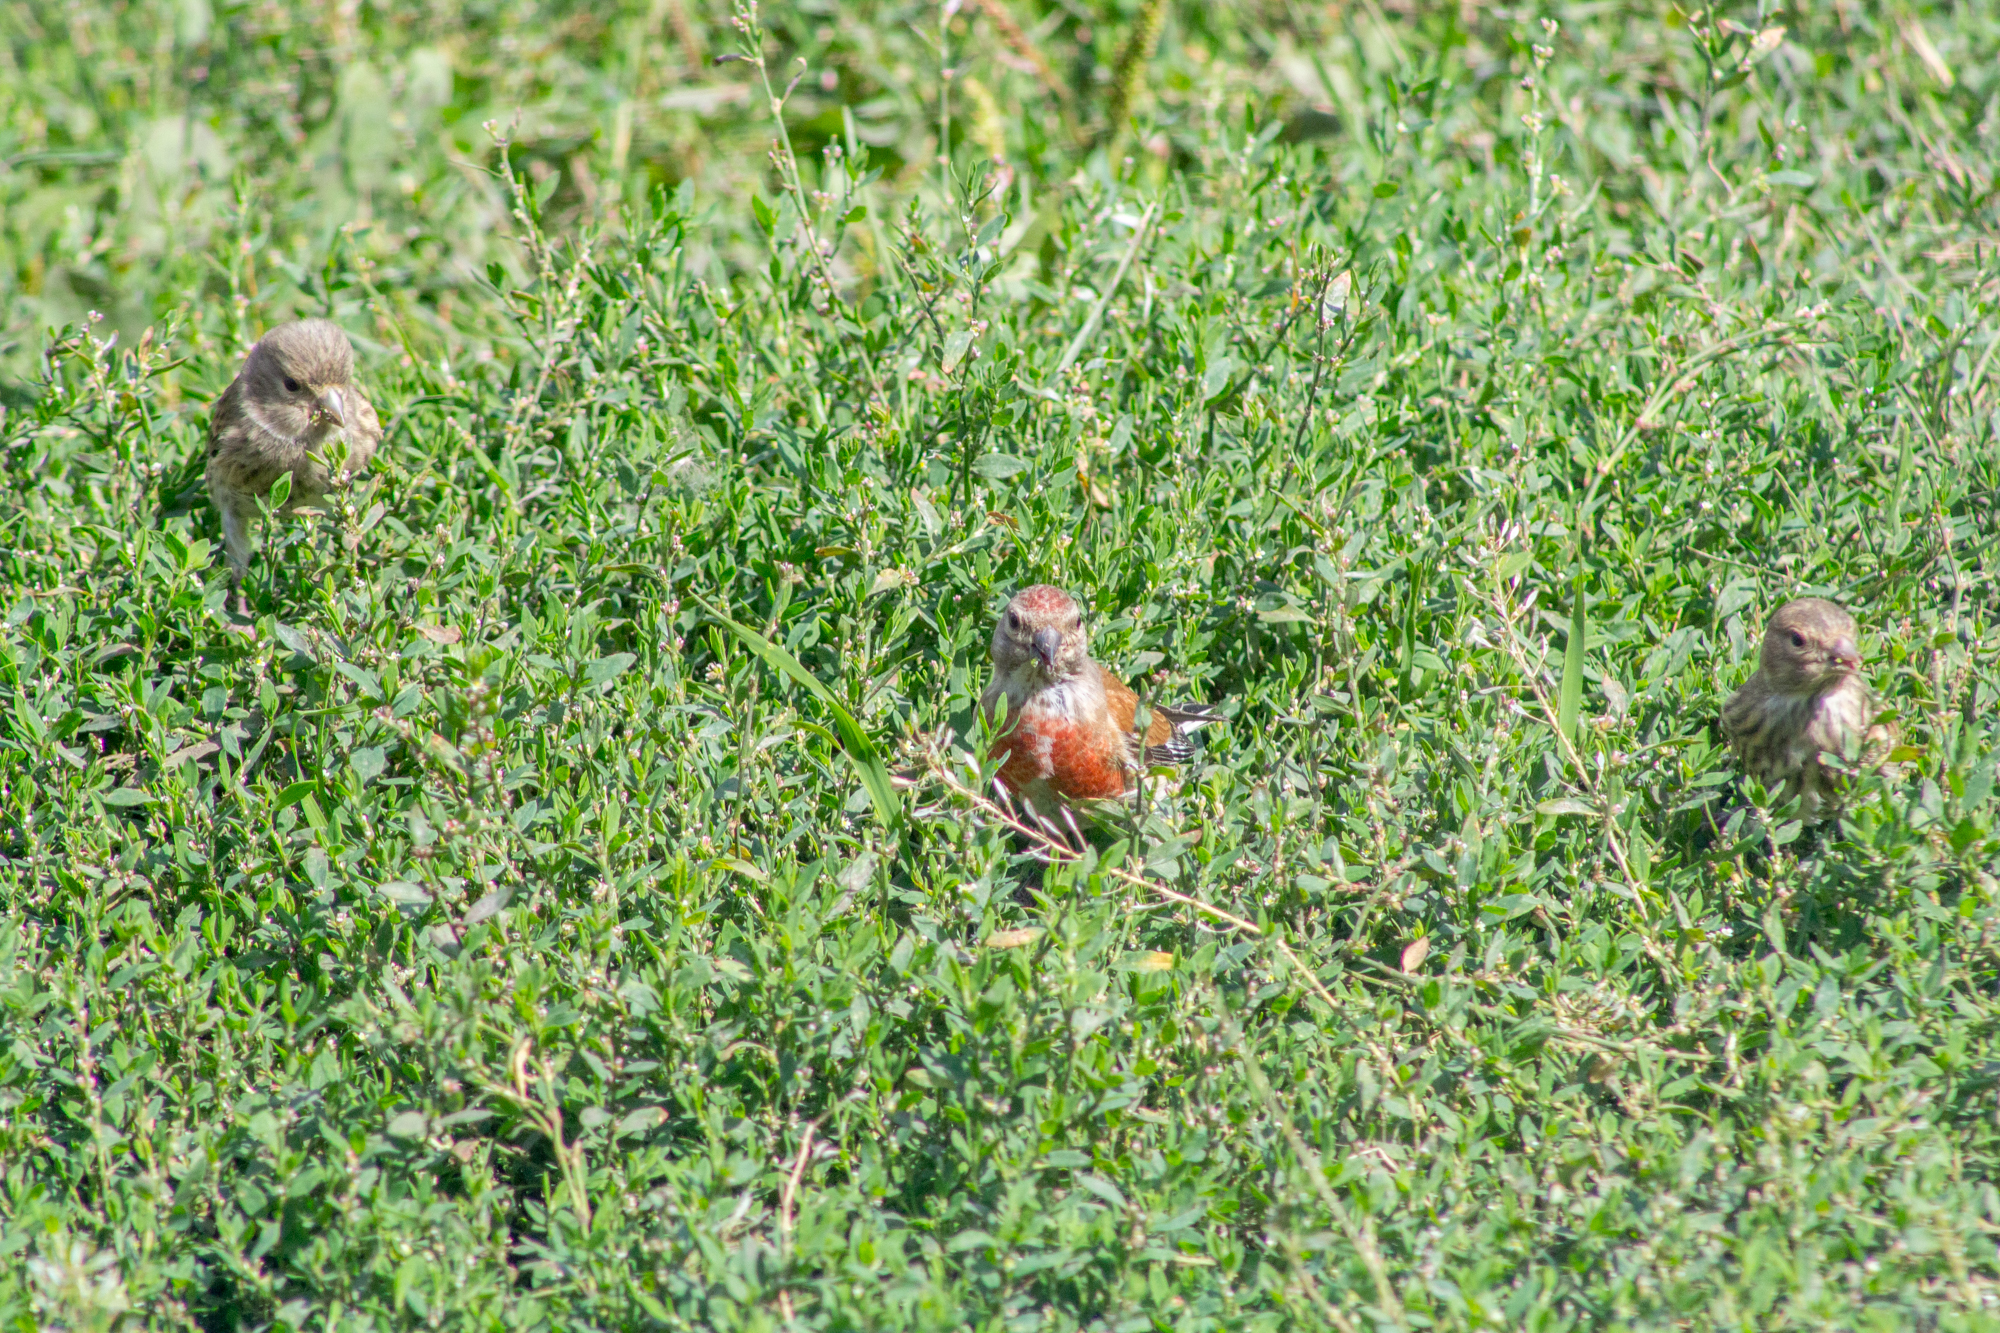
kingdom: Animalia
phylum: Chordata
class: Aves
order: Passeriformes
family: Fringillidae
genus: Linaria
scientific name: Linaria cannabina
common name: Common linnet
